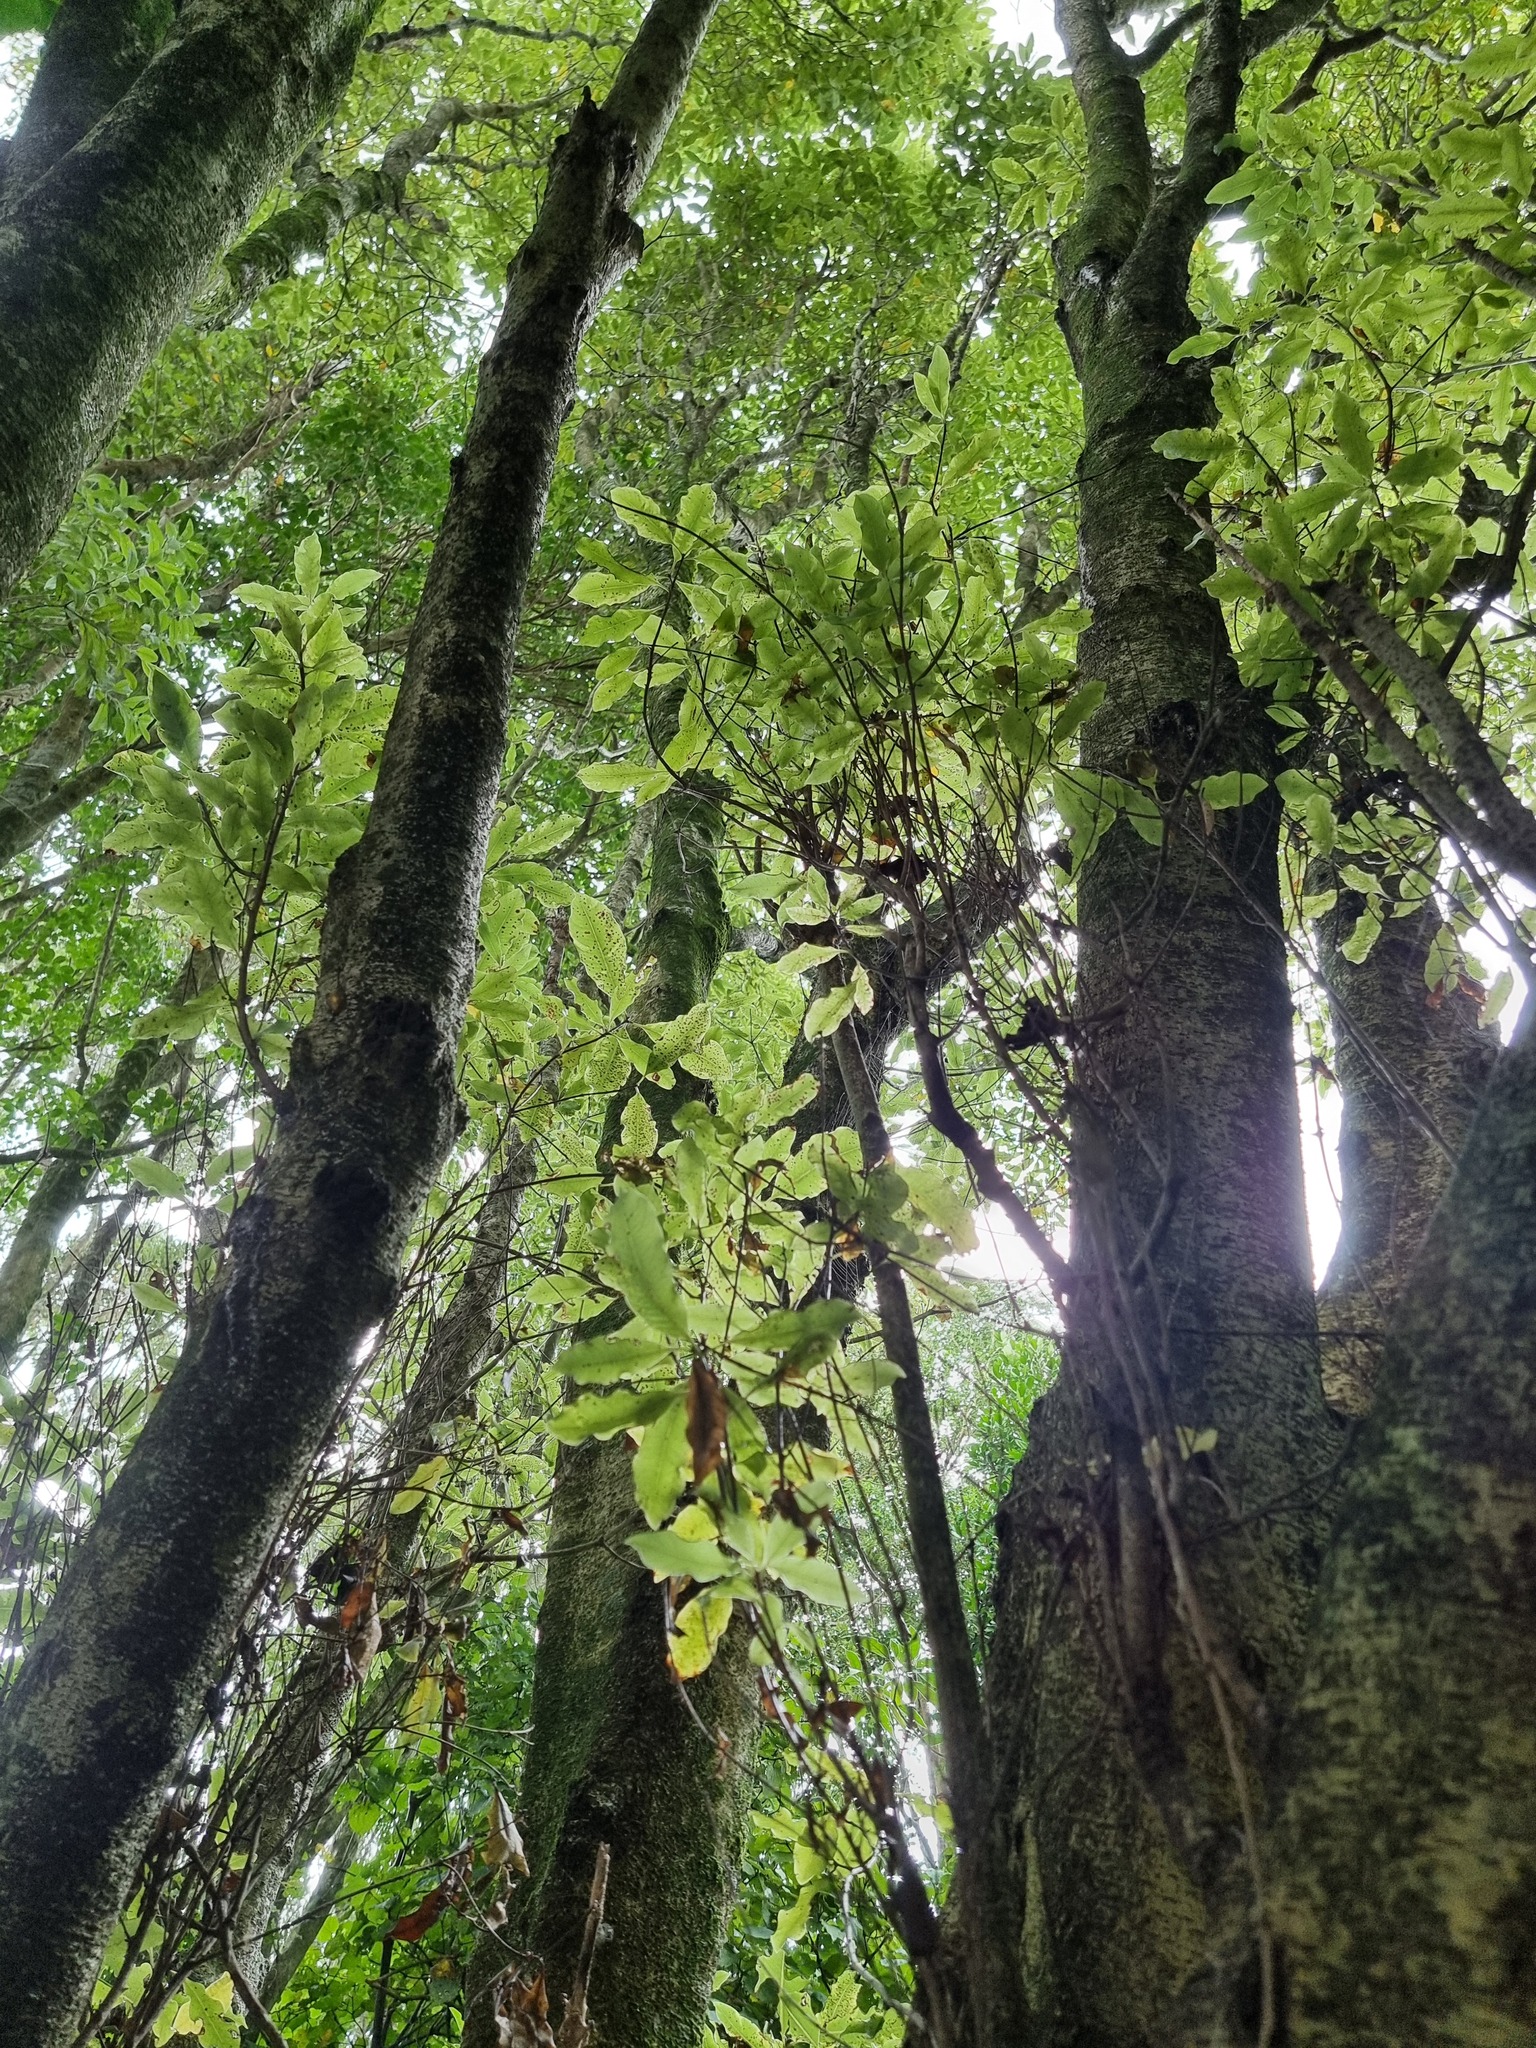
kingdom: Plantae
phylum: Tracheophyta
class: Magnoliopsida
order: Apiales
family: Pittosporaceae
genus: Pittosporum
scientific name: Pittosporum eugenioides
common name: Lemonwood
